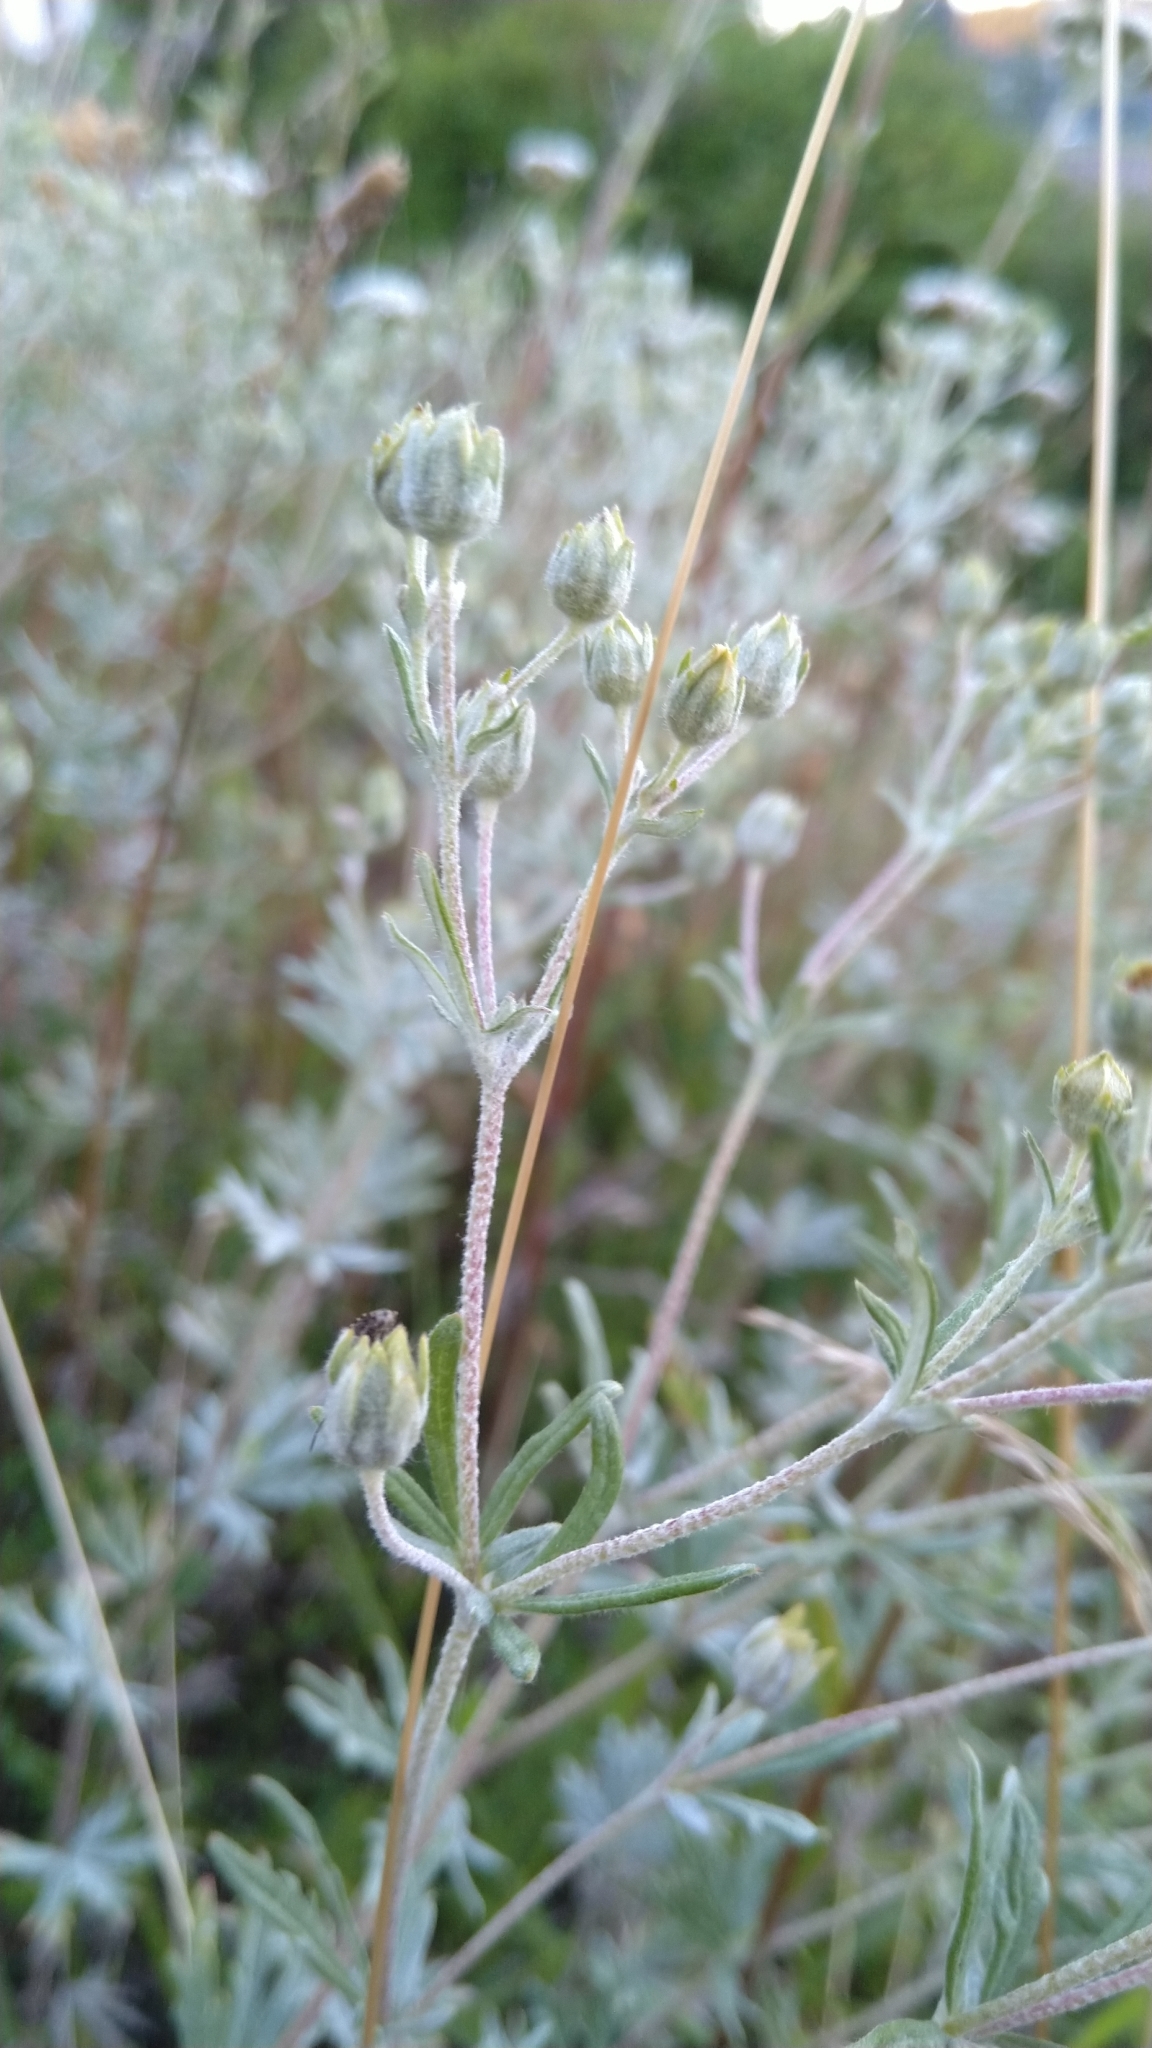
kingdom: Plantae
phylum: Tracheophyta
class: Magnoliopsida
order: Rosales
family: Rosaceae
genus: Potentilla
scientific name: Potentilla argentea
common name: Hoary cinquefoil
